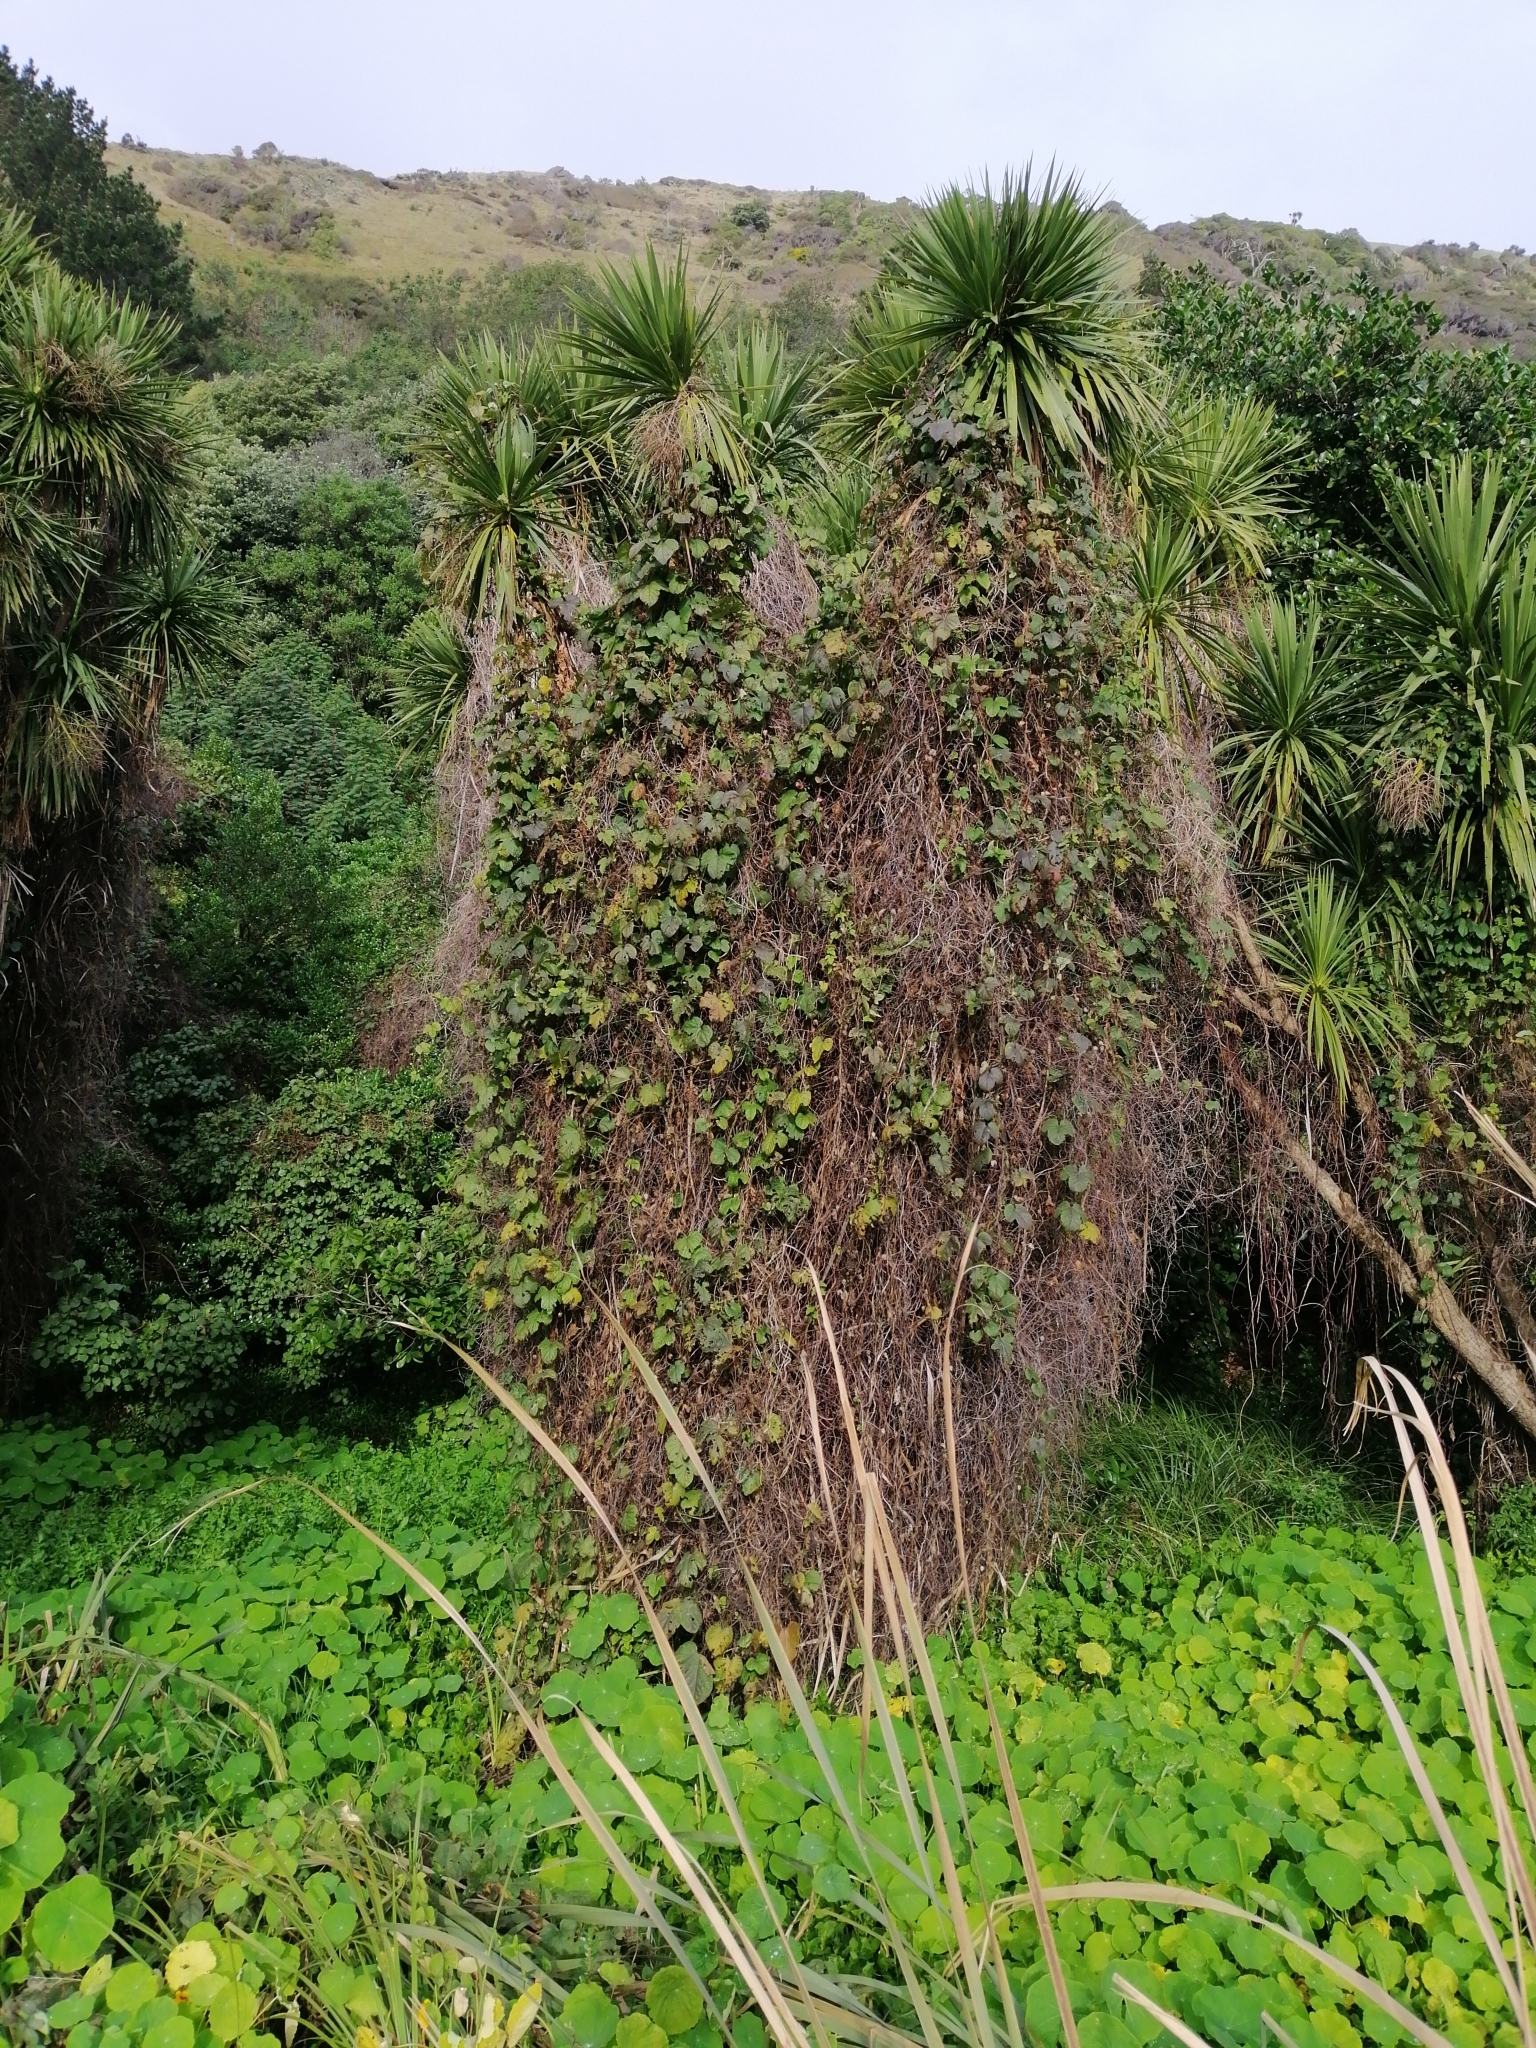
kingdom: Plantae
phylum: Tracheophyta
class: Magnoliopsida
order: Solanales
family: Convolvulaceae
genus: Ipomoea
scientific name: Ipomoea indica
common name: Blue dawnflower
